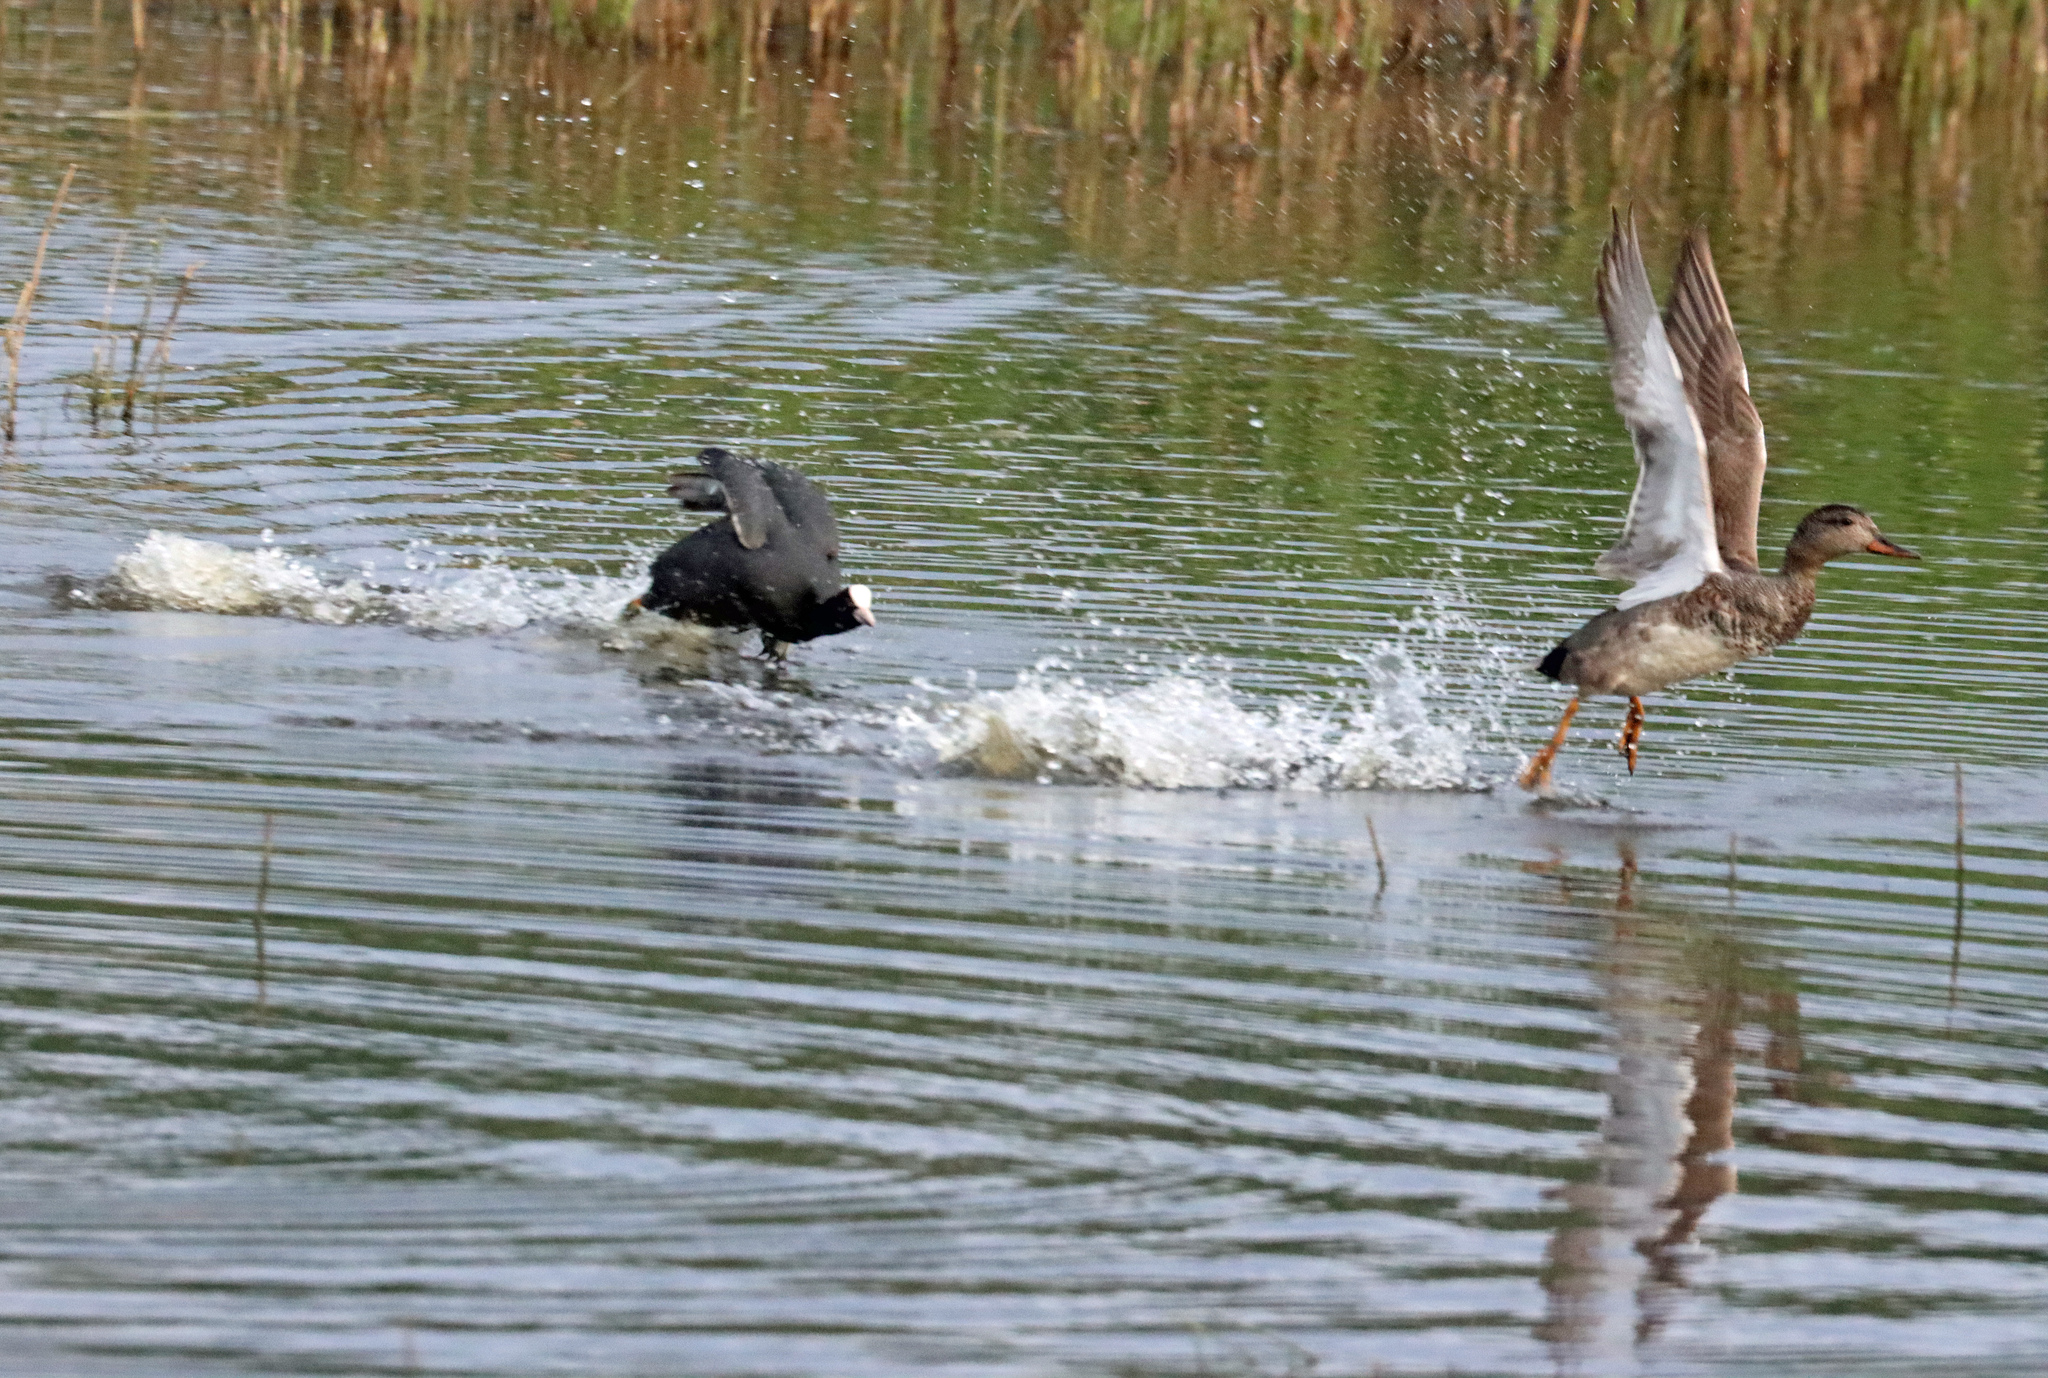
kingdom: Animalia
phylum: Chordata
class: Aves
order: Anseriformes
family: Anatidae
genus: Mareca
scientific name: Mareca strepera
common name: Gadwall
